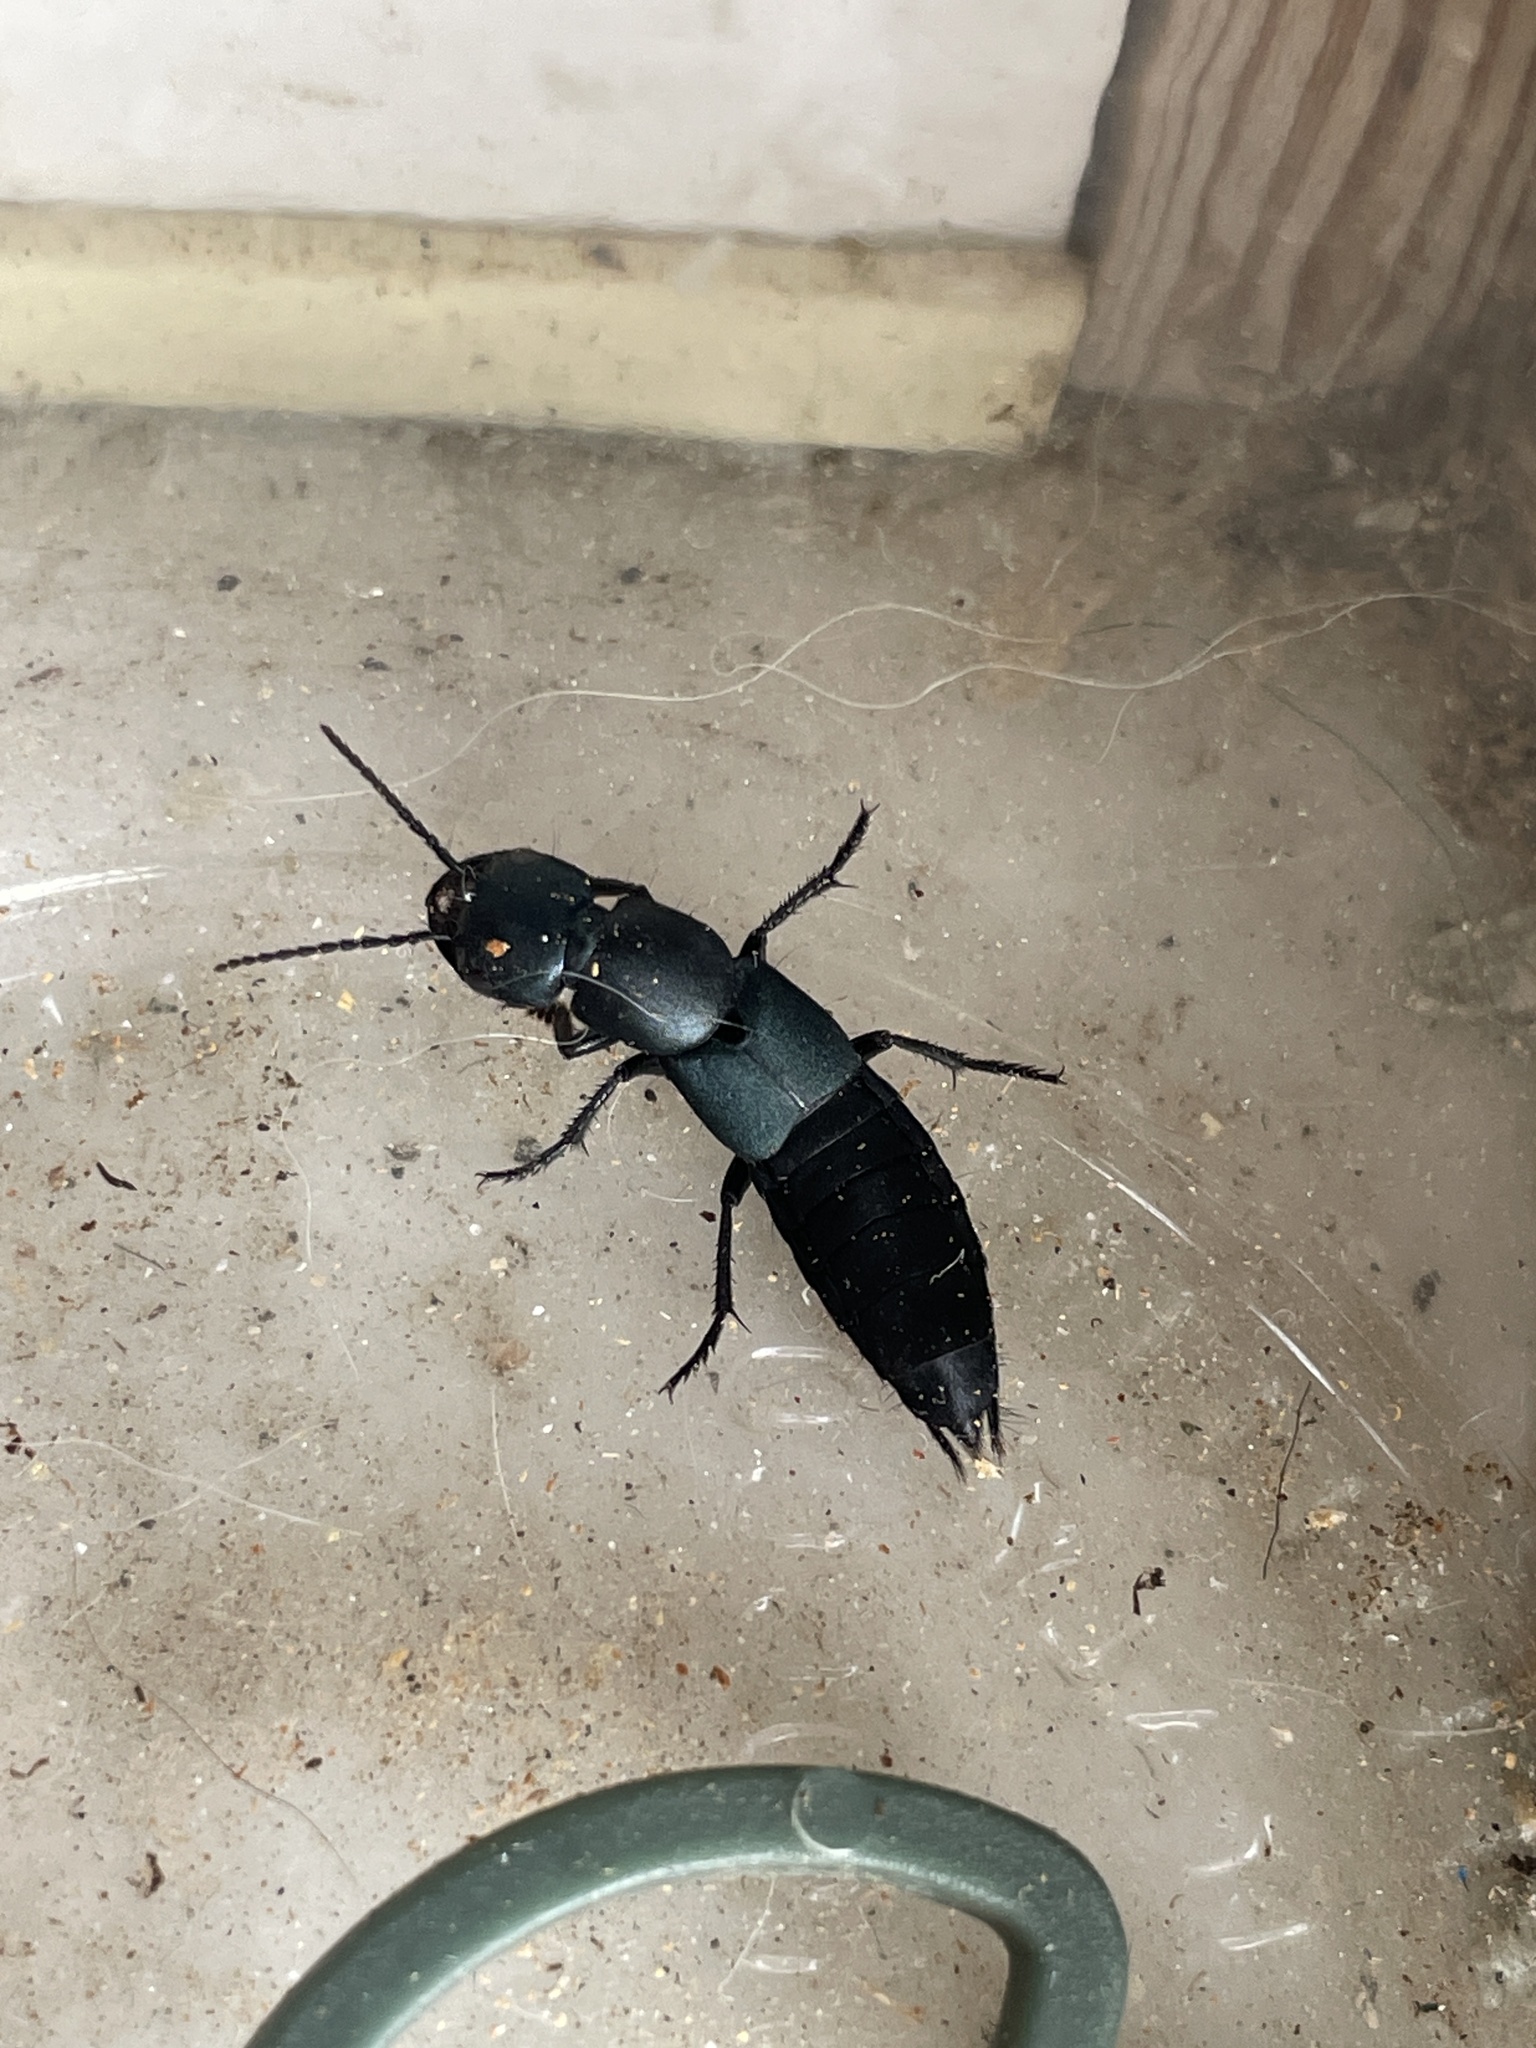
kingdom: Animalia
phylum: Arthropoda
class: Insecta
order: Coleoptera
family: Staphylinidae
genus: Ocypus
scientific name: Ocypus ophthalmicus
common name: Blue rove-beetle
